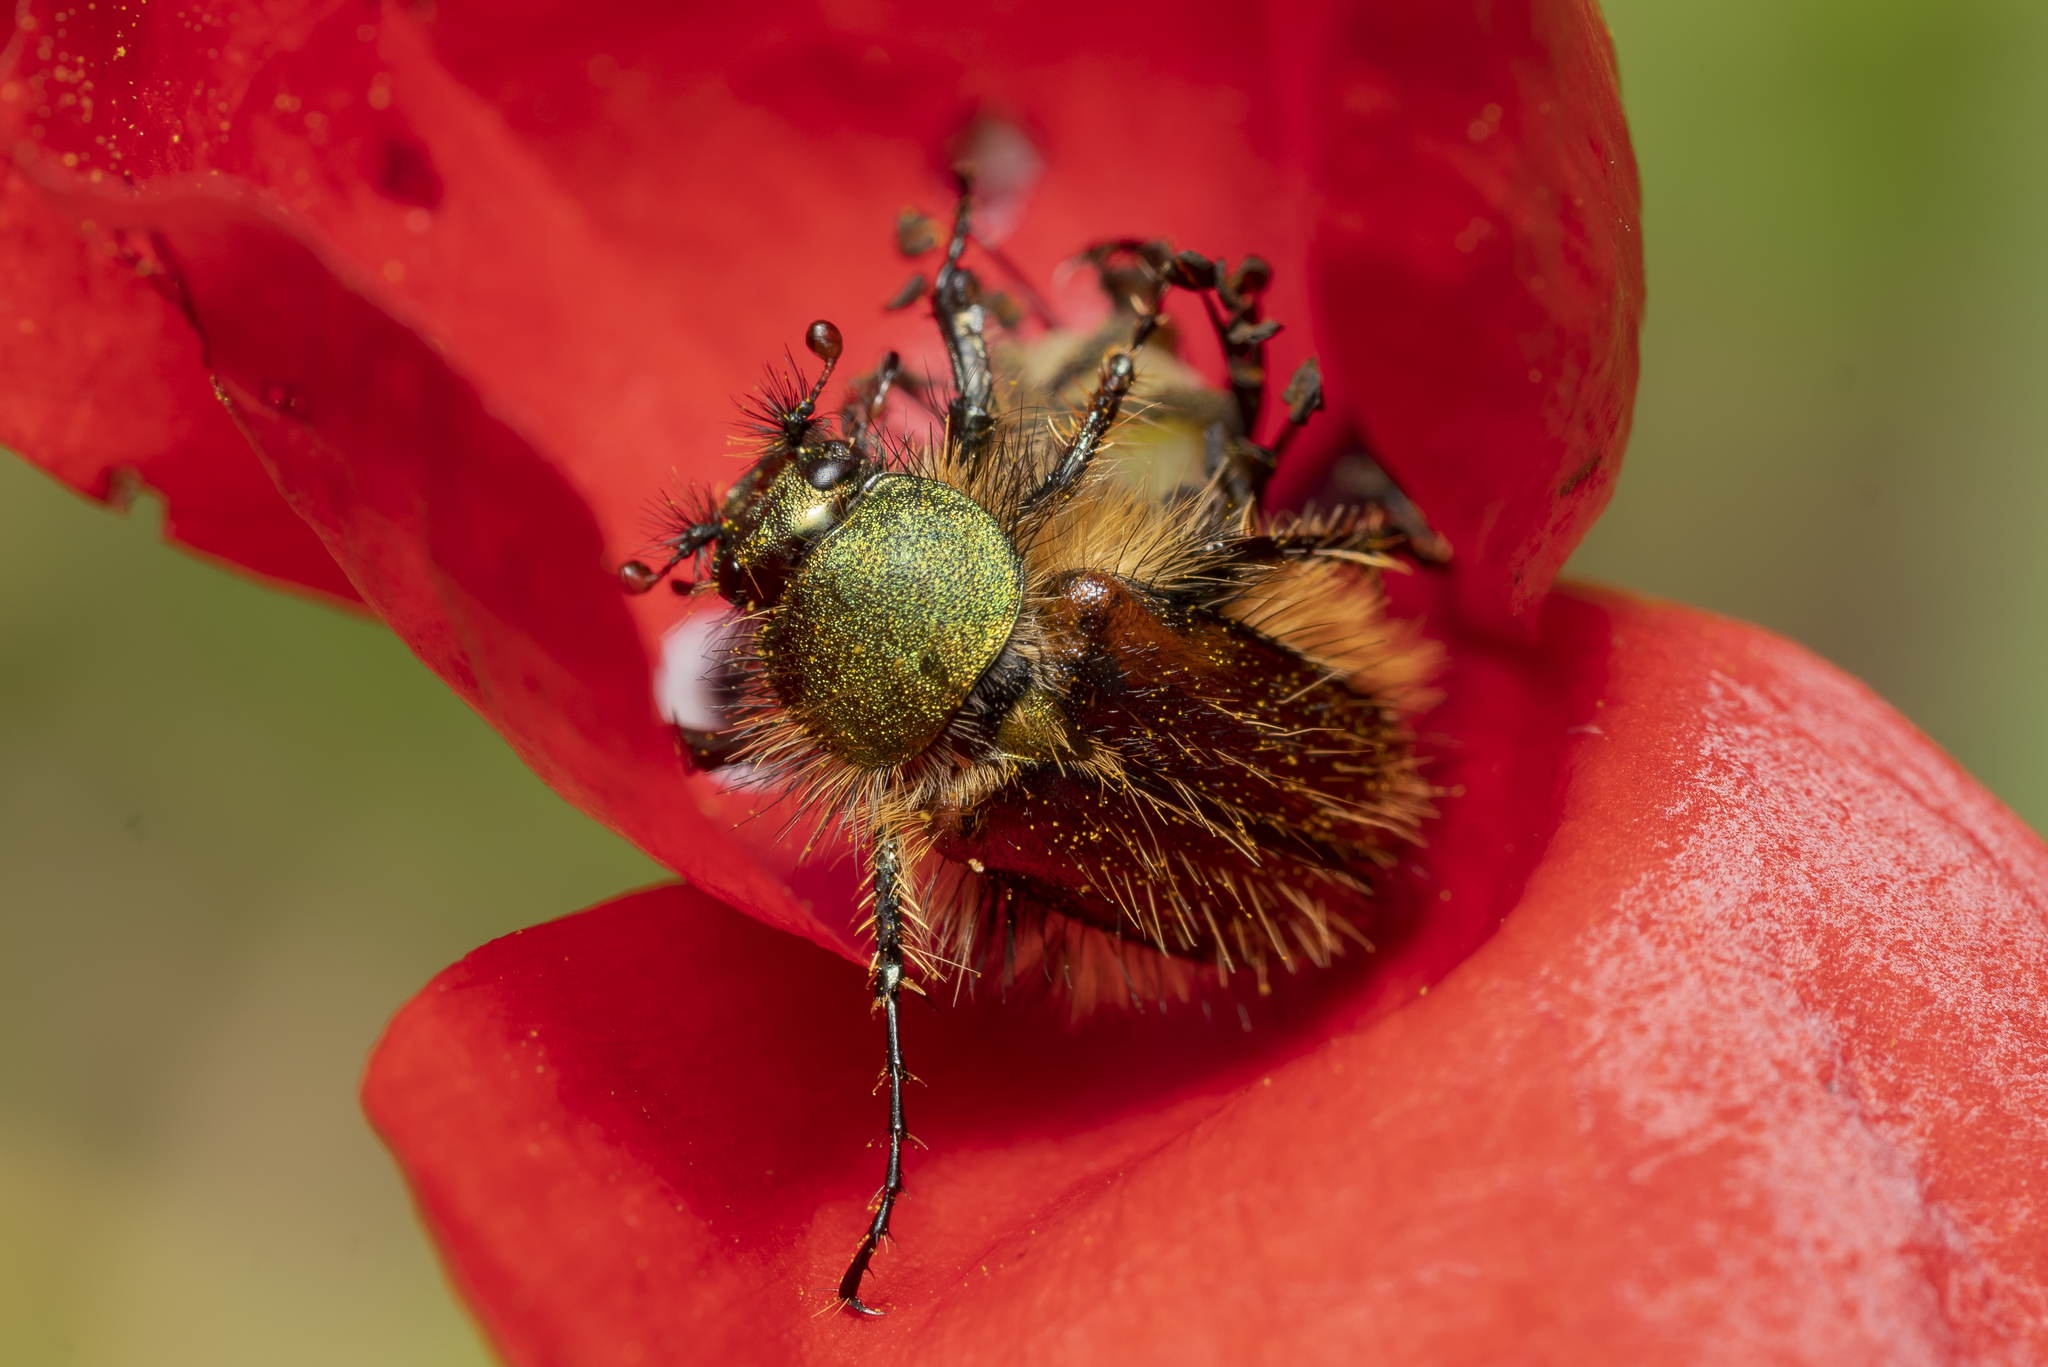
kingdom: Animalia
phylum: Arthropoda
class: Insecta
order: Coleoptera
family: Glaphyridae
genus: Pygopleurus
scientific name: Pygopleurus foina
